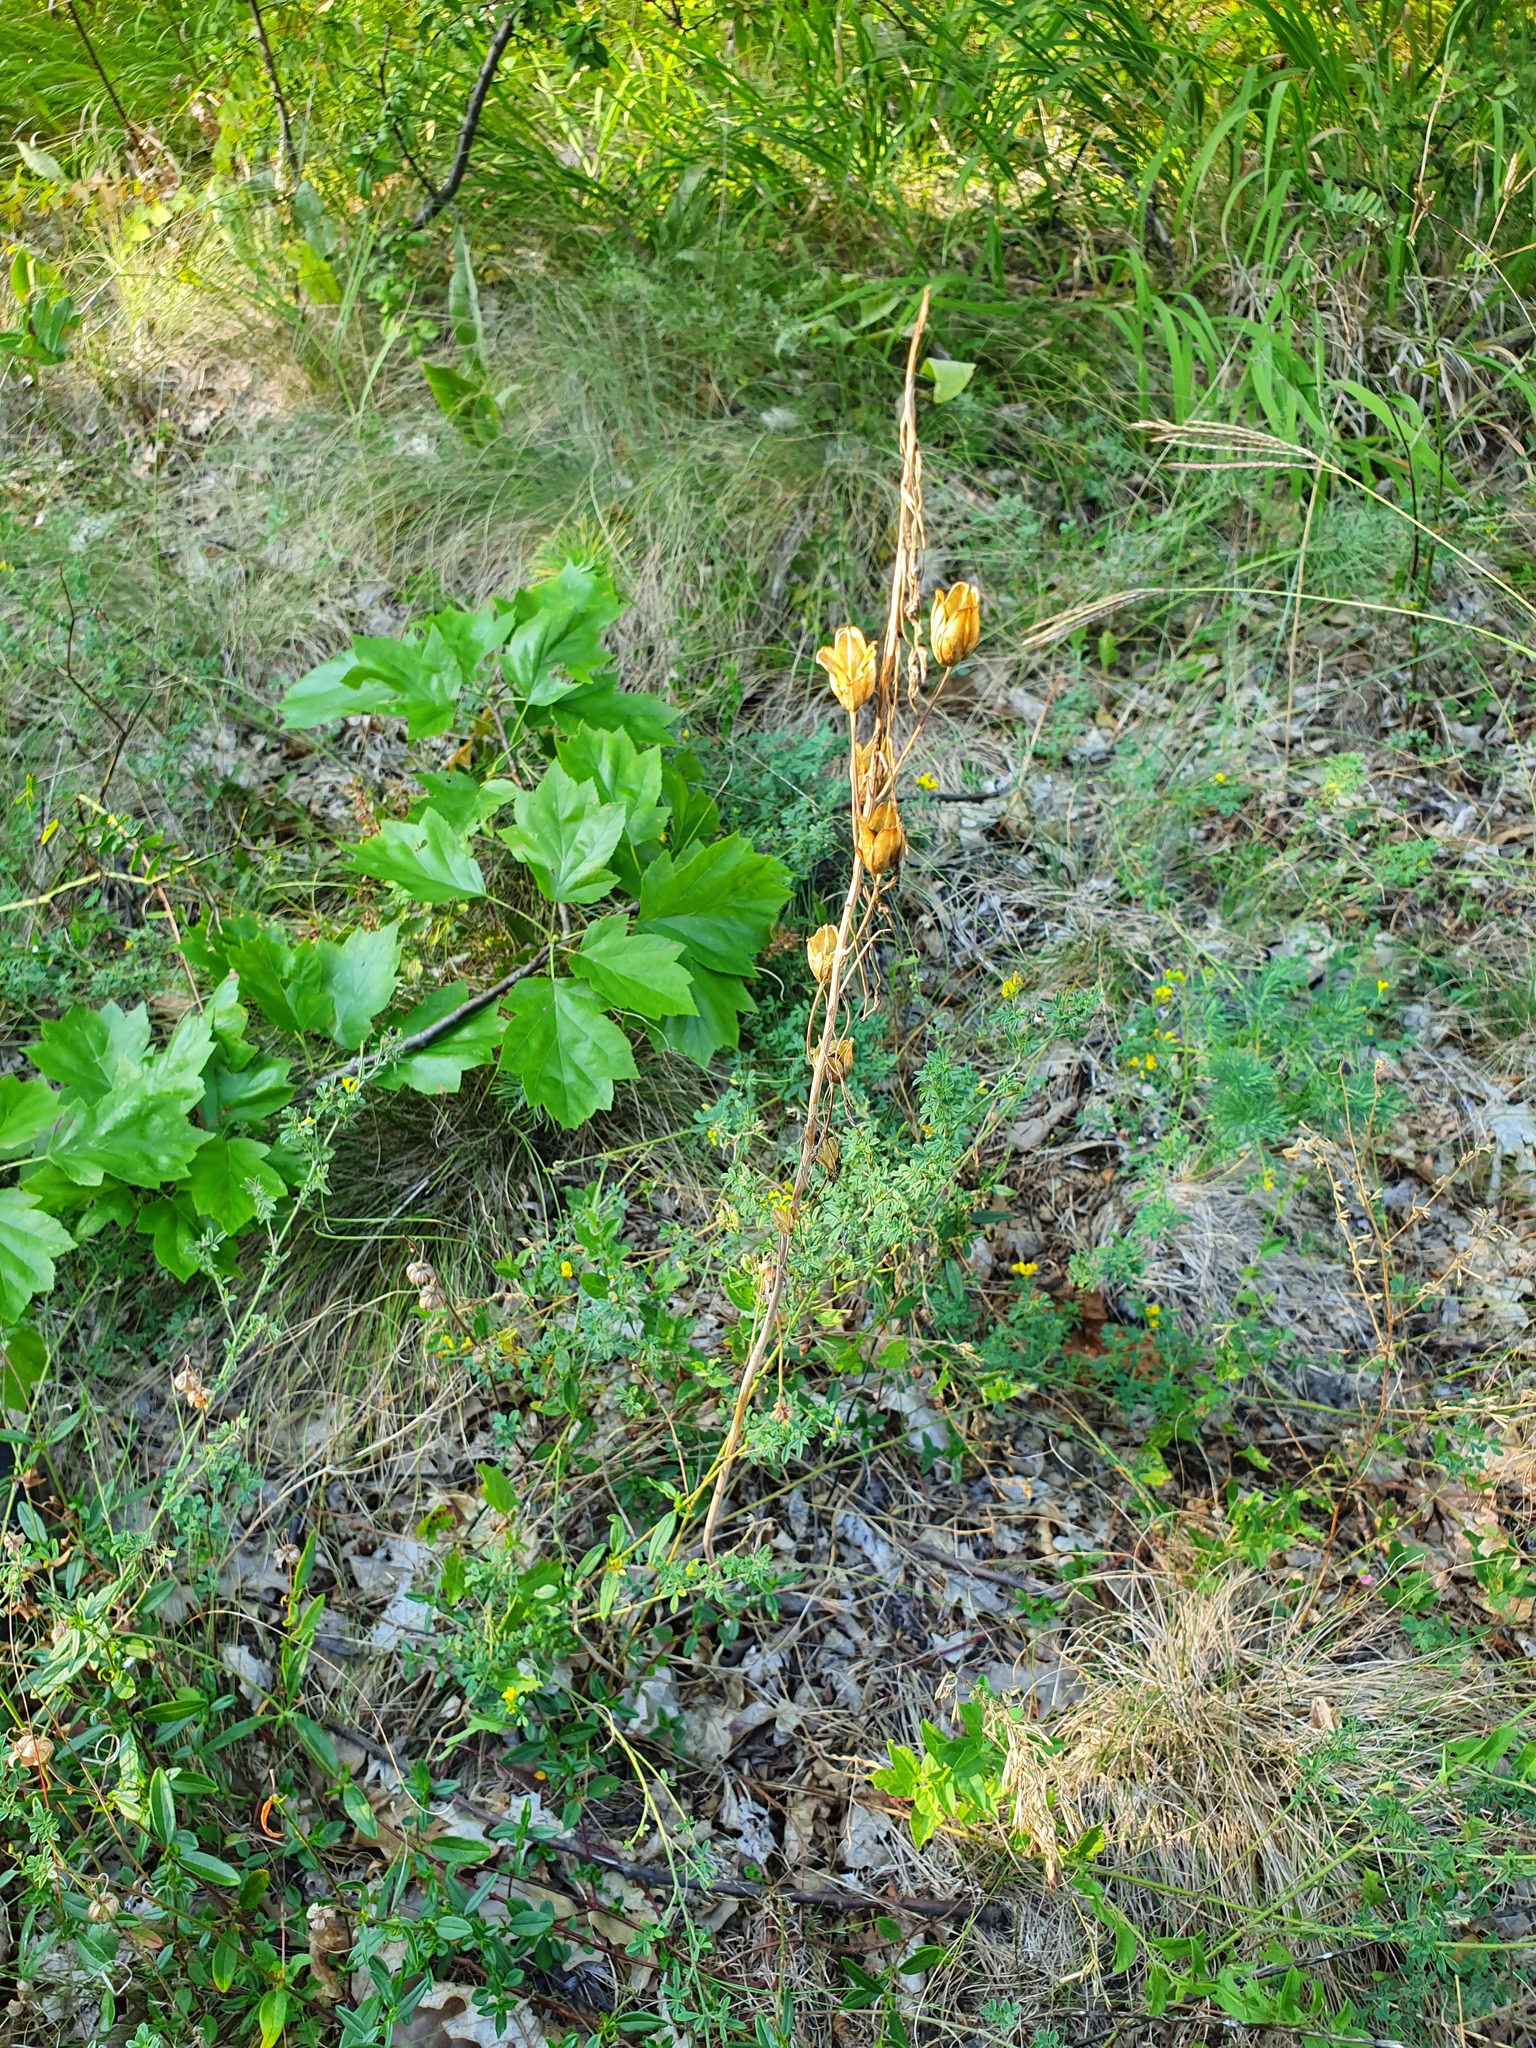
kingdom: Plantae
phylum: Tracheophyta
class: Liliopsida
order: Asparagales
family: Asparagaceae
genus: Ornithogalum
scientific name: Ornithogalum pyramidale
